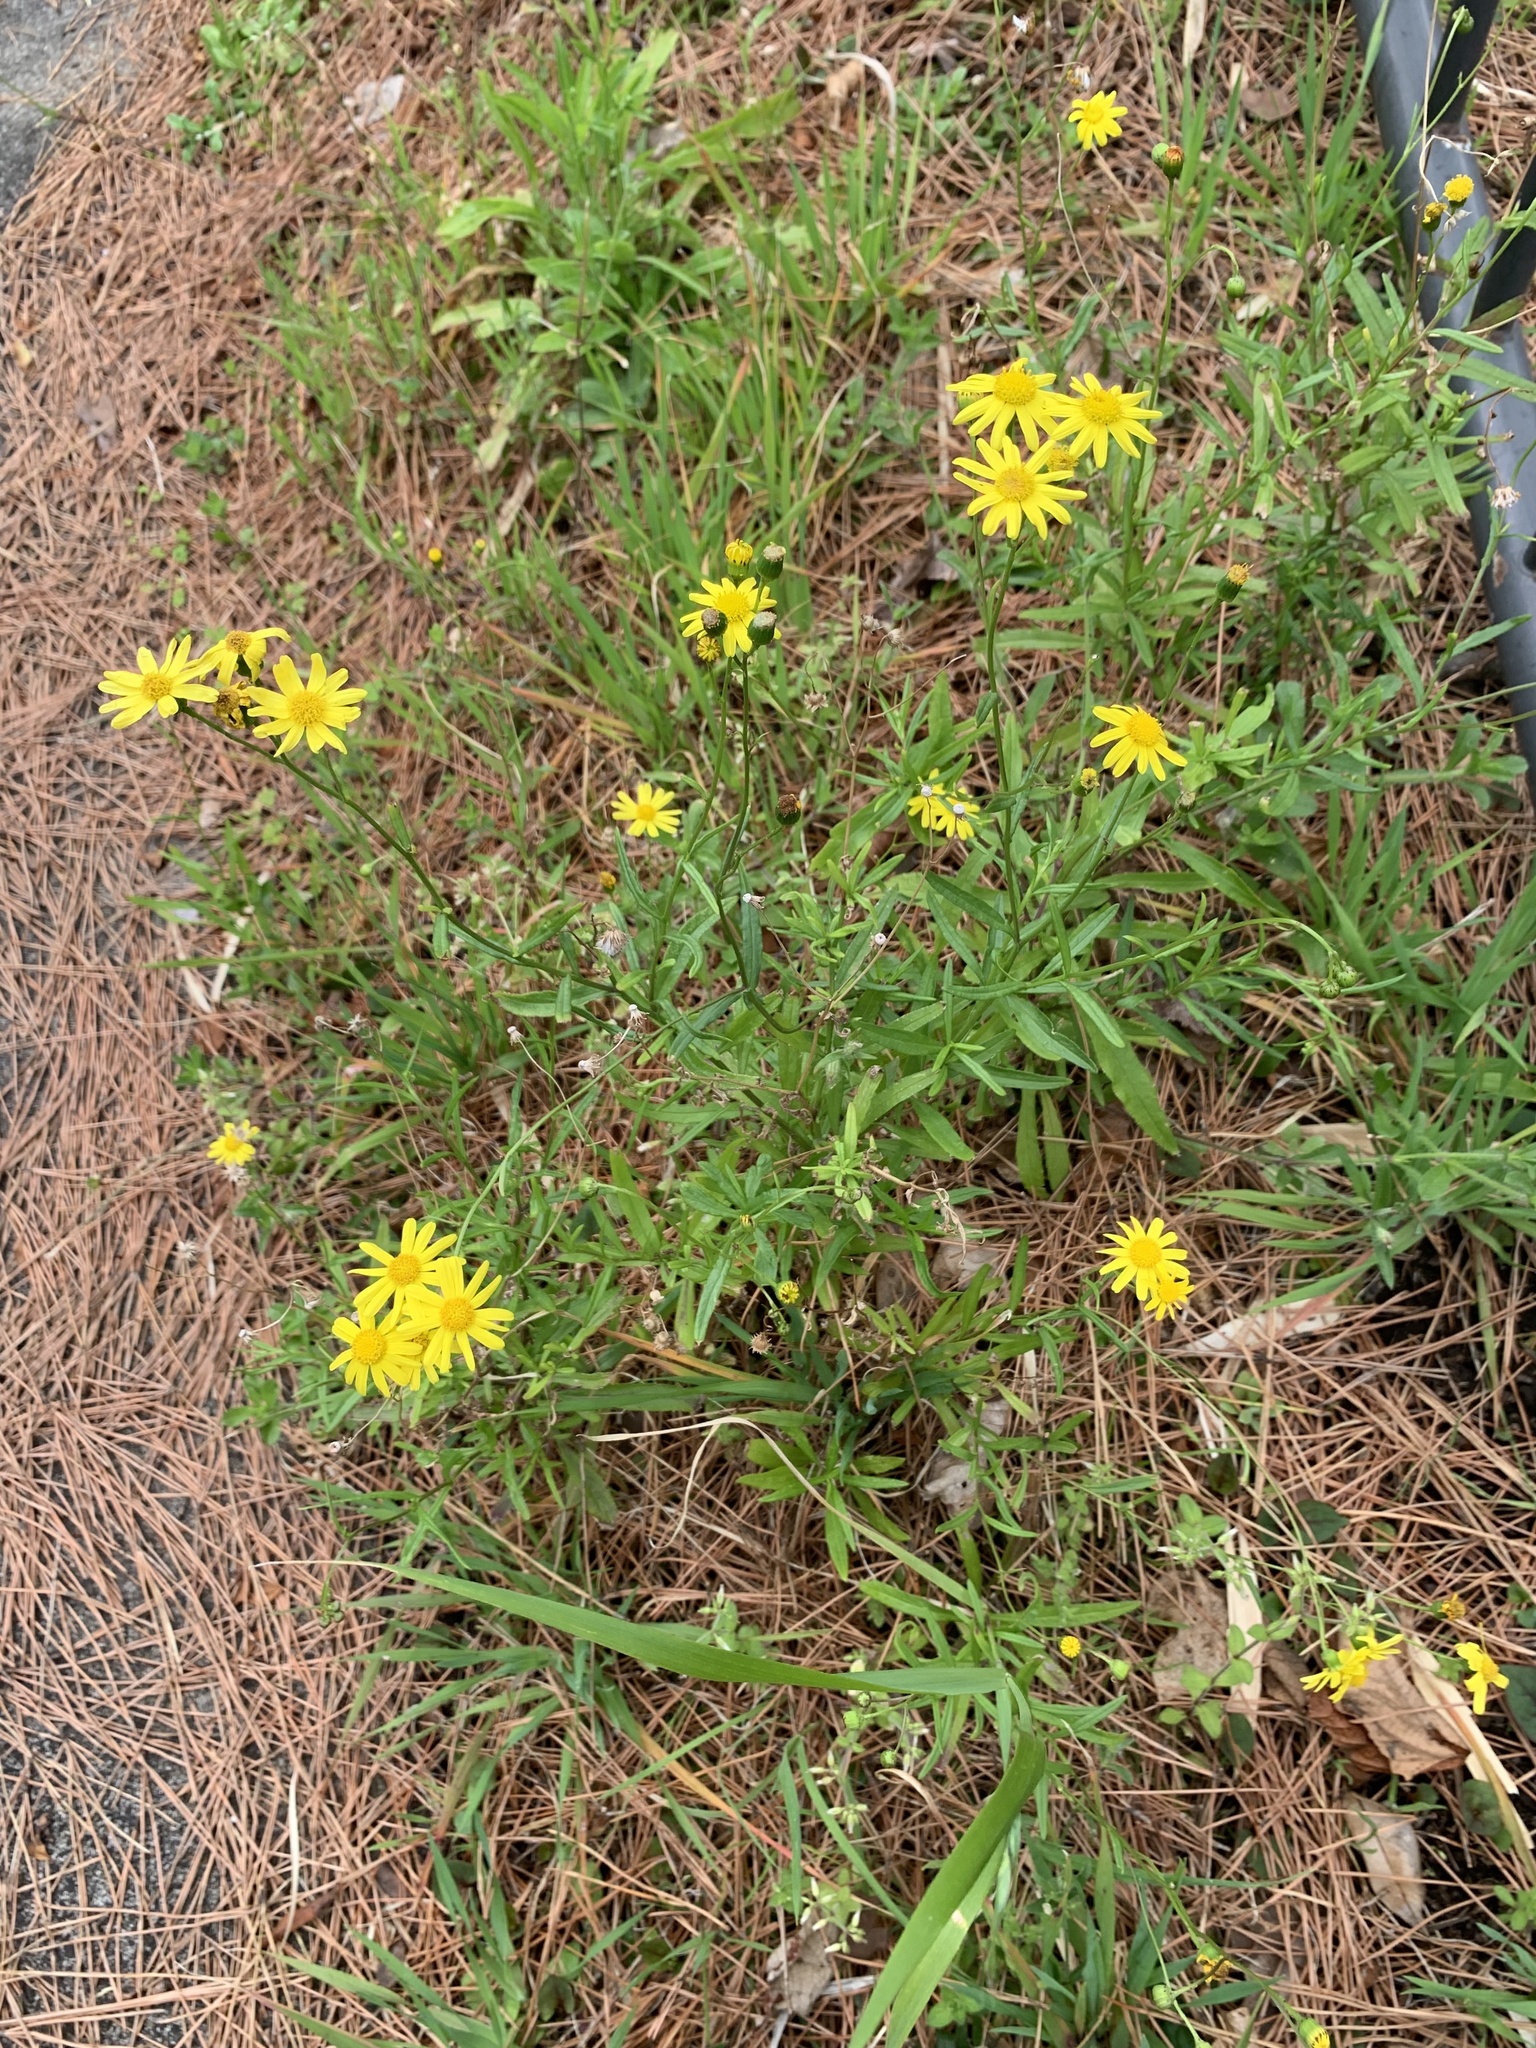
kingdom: Plantae
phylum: Tracheophyta
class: Magnoliopsida
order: Asterales
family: Asteraceae
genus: Senecio
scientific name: Senecio madagascariensis
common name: Madagascar ragwort
